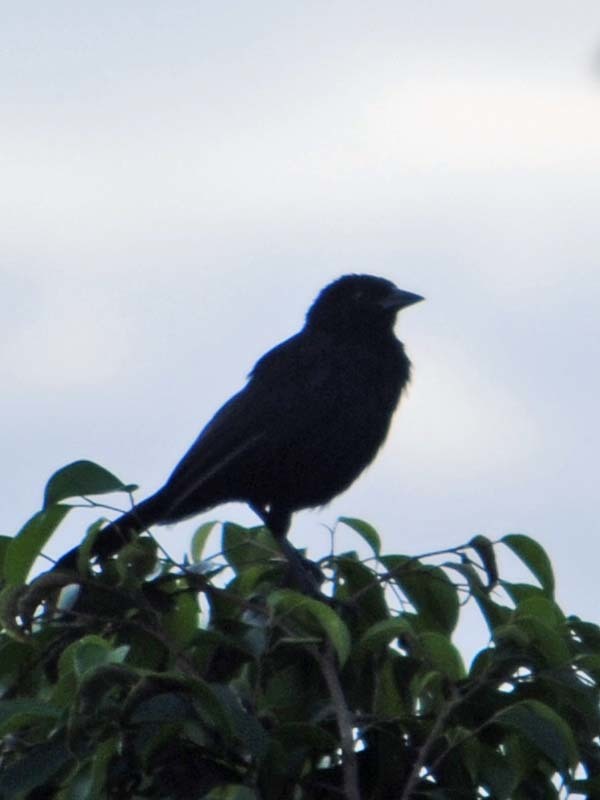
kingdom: Animalia
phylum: Chordata
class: Aves
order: Passeriformes
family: Icteridae
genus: Dives
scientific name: Dives dives
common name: Melodious blackbird
